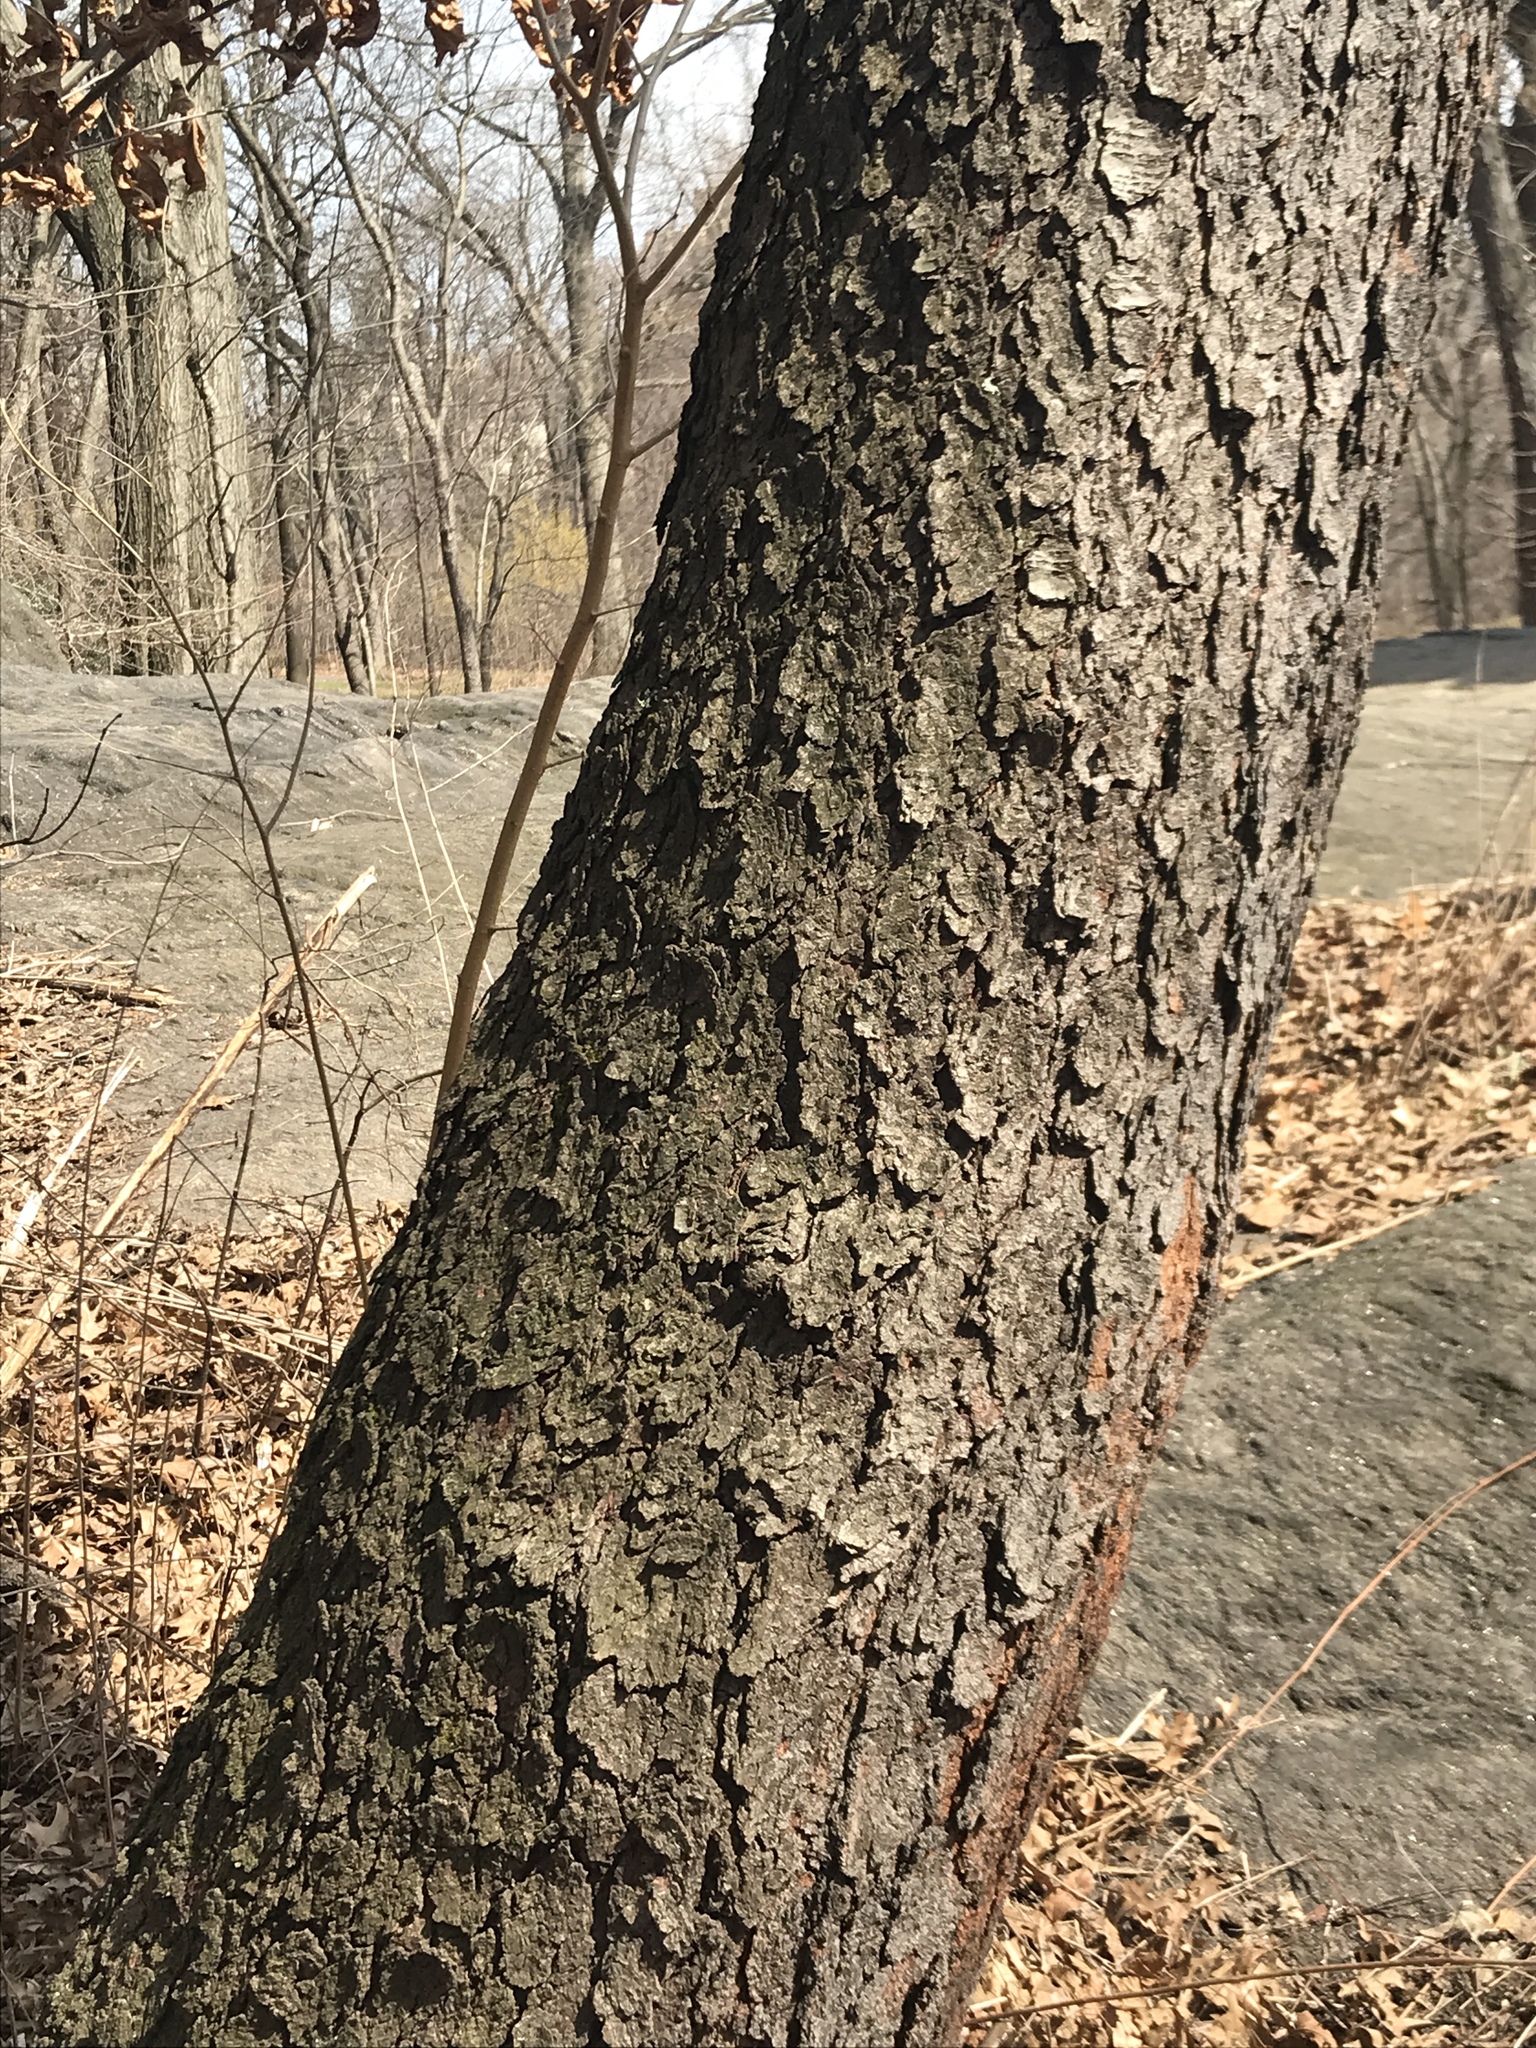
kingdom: Plantae
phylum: Tracheophyta
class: Magnoliopsida
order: Rosales
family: Rosaceae
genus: Prunus
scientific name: Prunus serotina
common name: Black cherry
